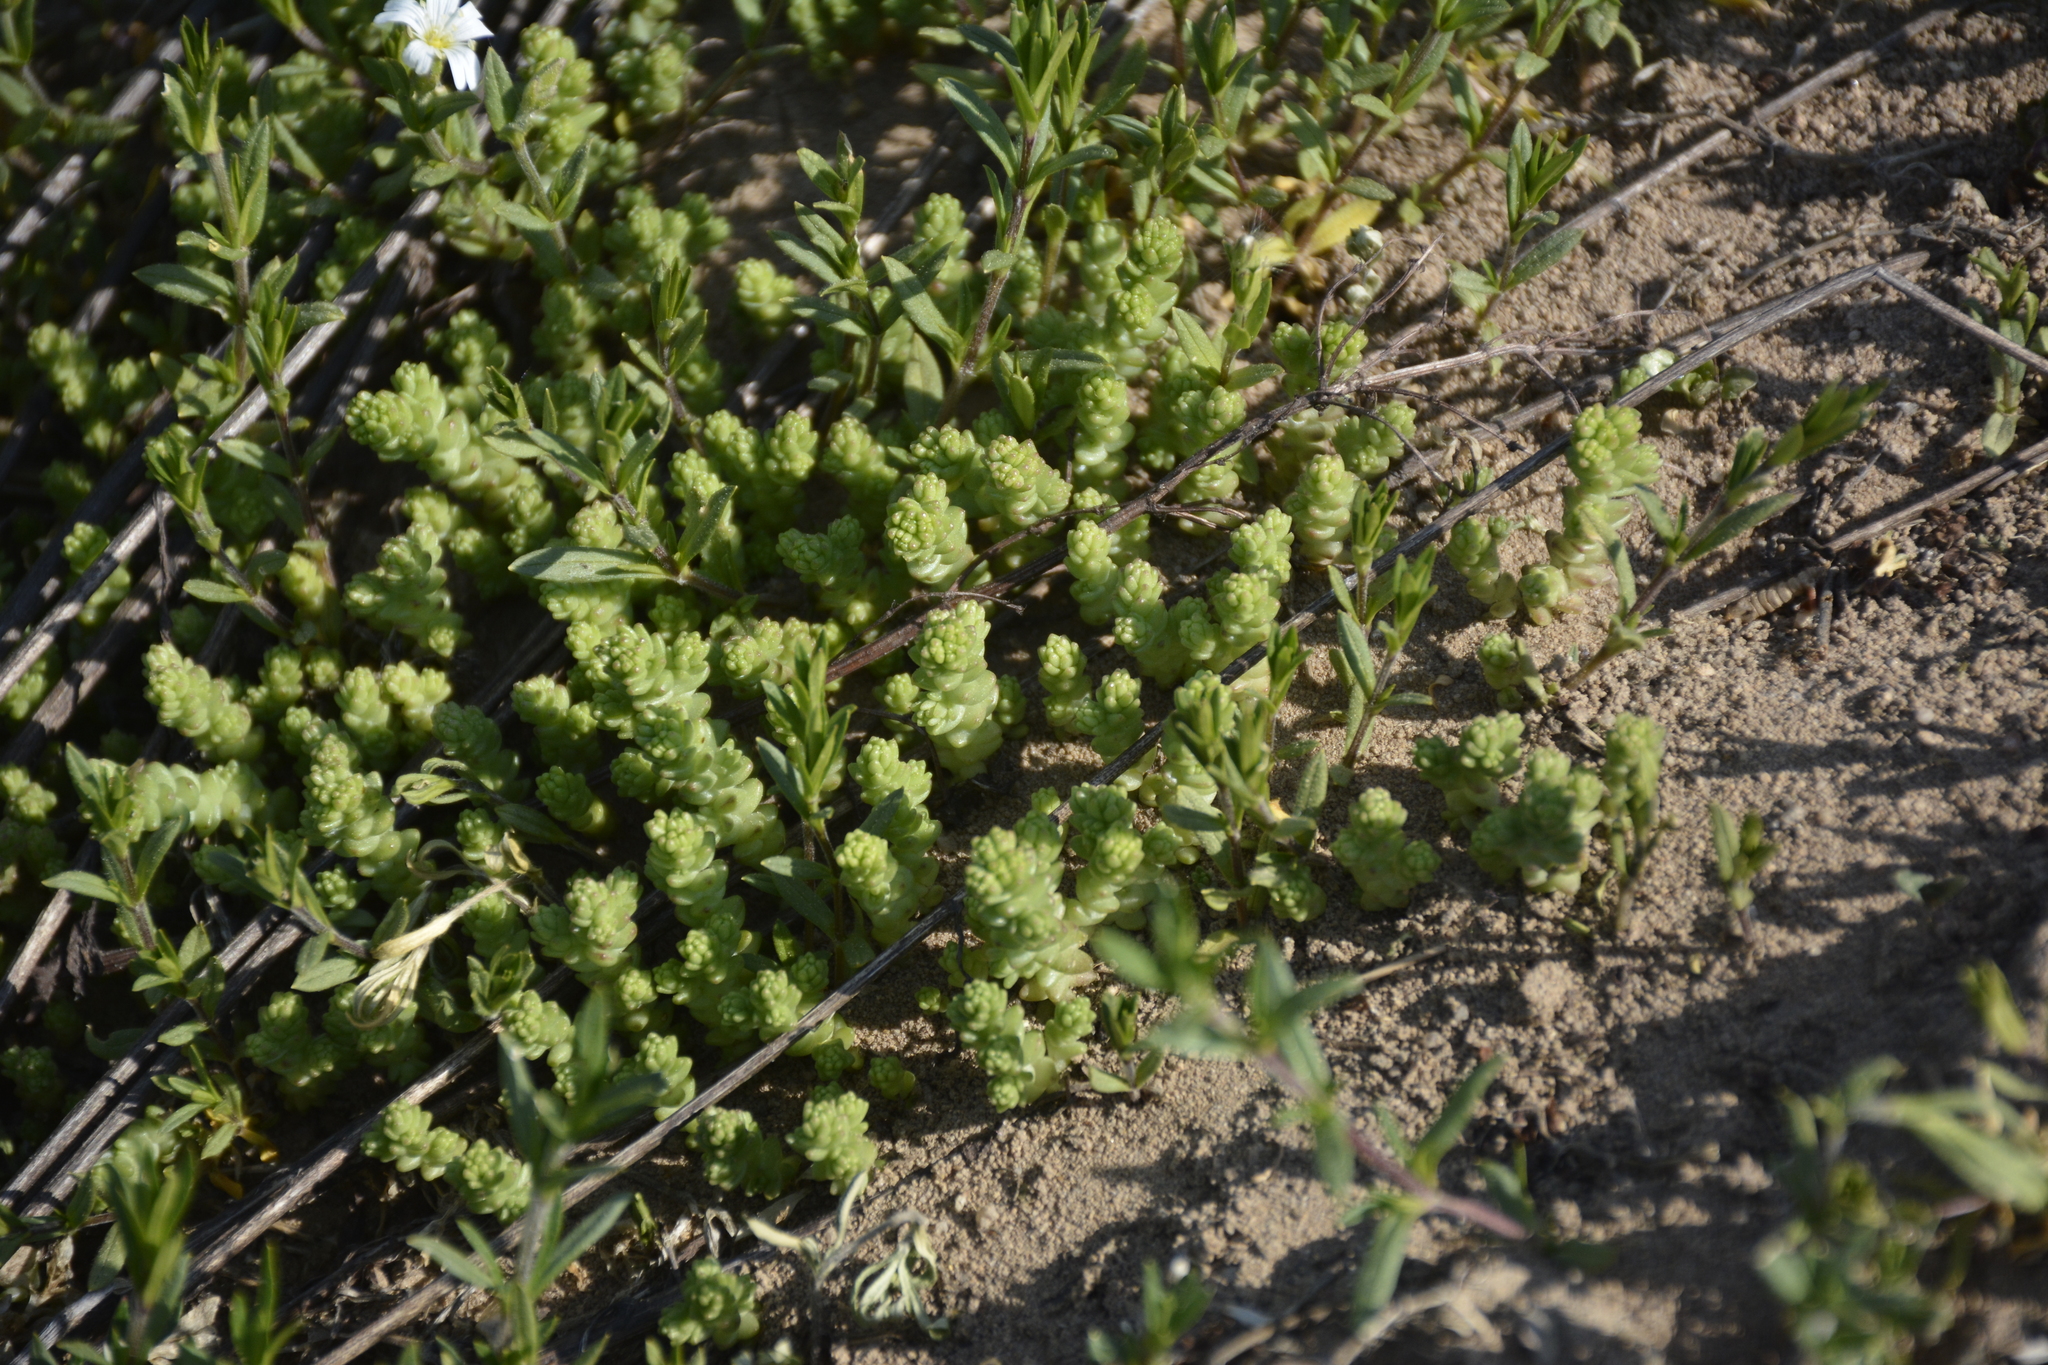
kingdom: Plantae
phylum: Tracheophyta
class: Magnoliopsida
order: Saxifragales
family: Crassulaceae
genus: Sedum
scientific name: Sedum acre
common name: Biting stonecrop
